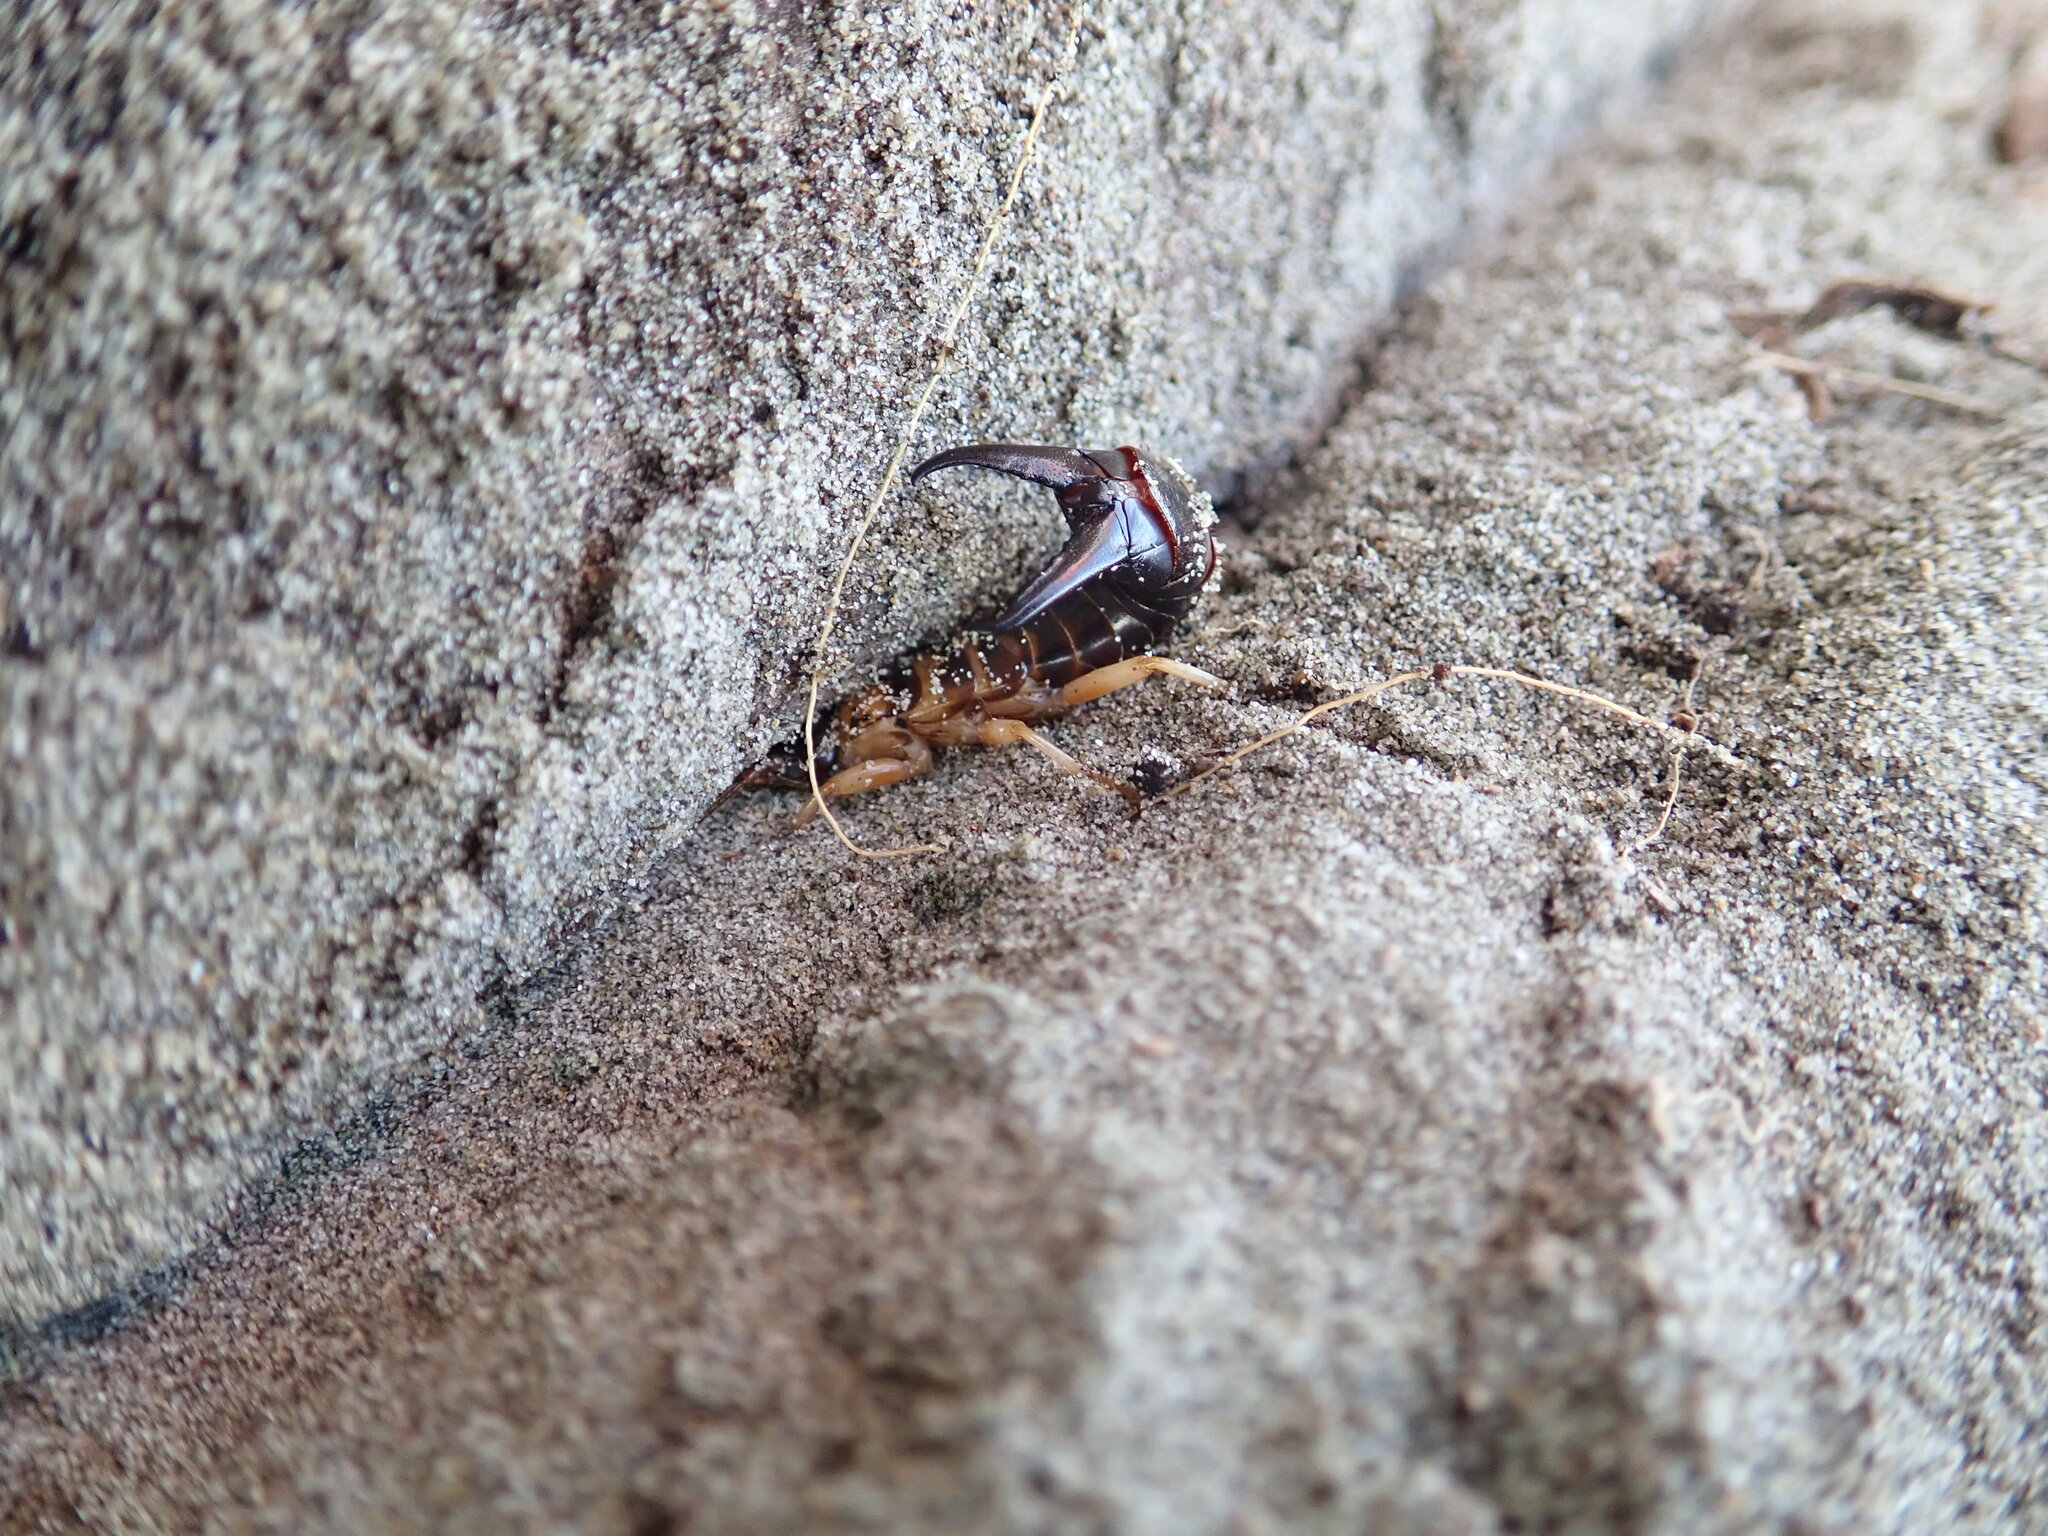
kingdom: Animalia
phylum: Arthropoda
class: Insecta
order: Dermaptera
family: Anisolabididae
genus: Anisolabis
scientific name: Anisolabis littorea
